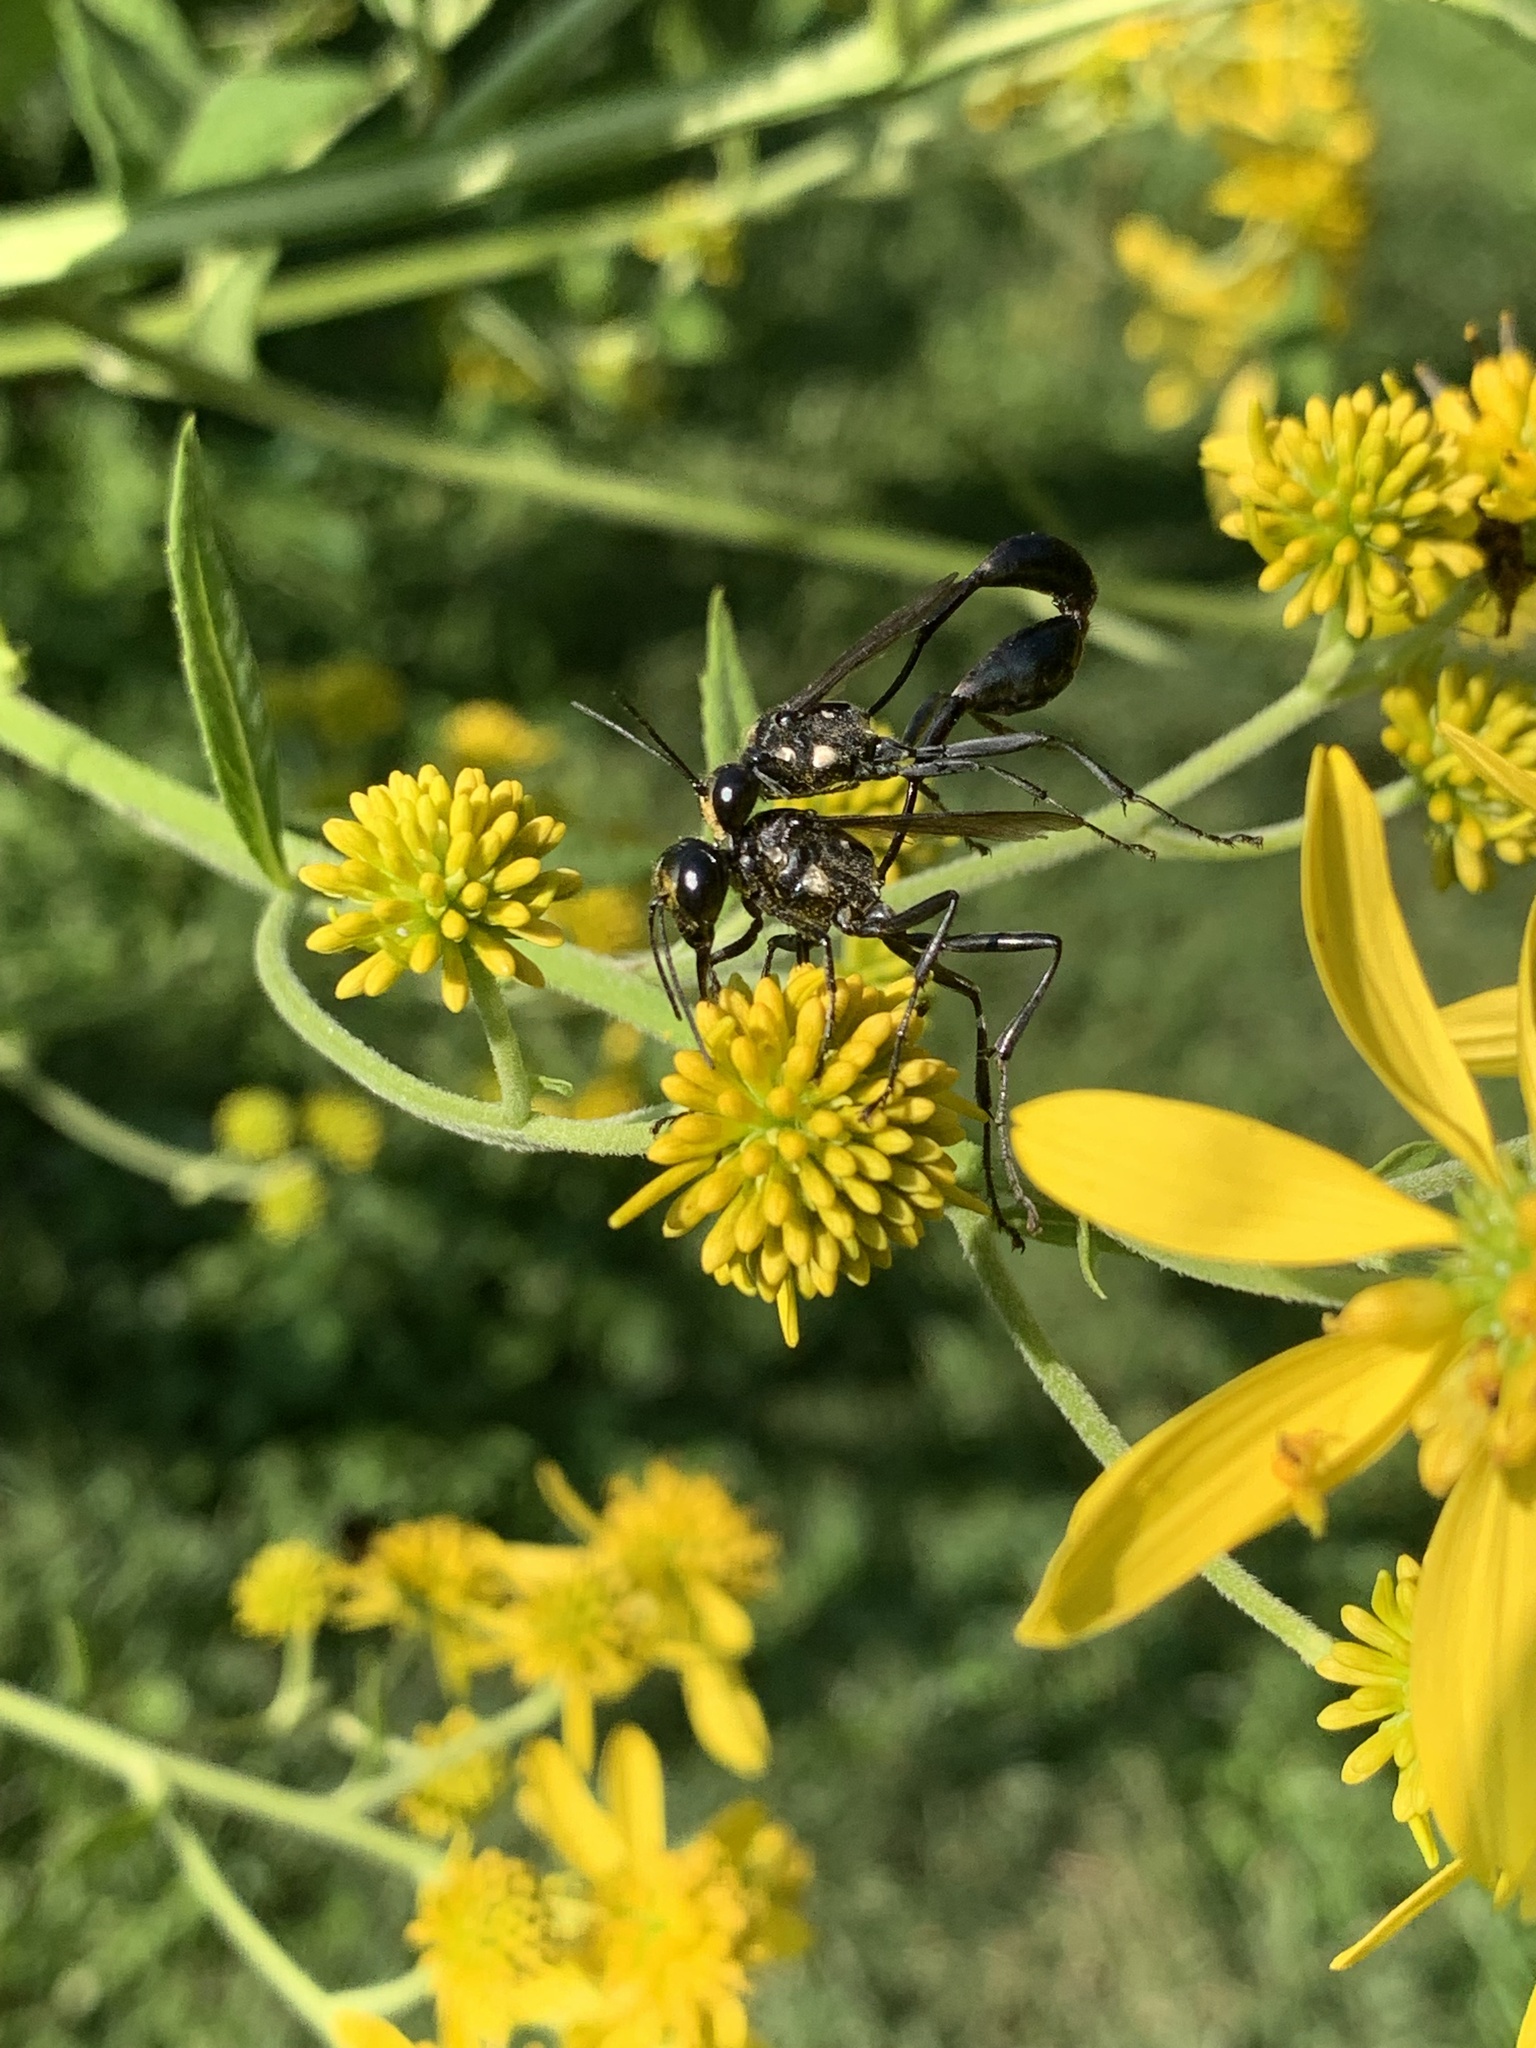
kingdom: Animalia
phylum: Arthropoda
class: Insecta
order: Hymenoptera
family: Sphecidae
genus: Eremnophila
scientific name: Eremnophila aureonotata
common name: Gold-marked thread-waisted wasp
